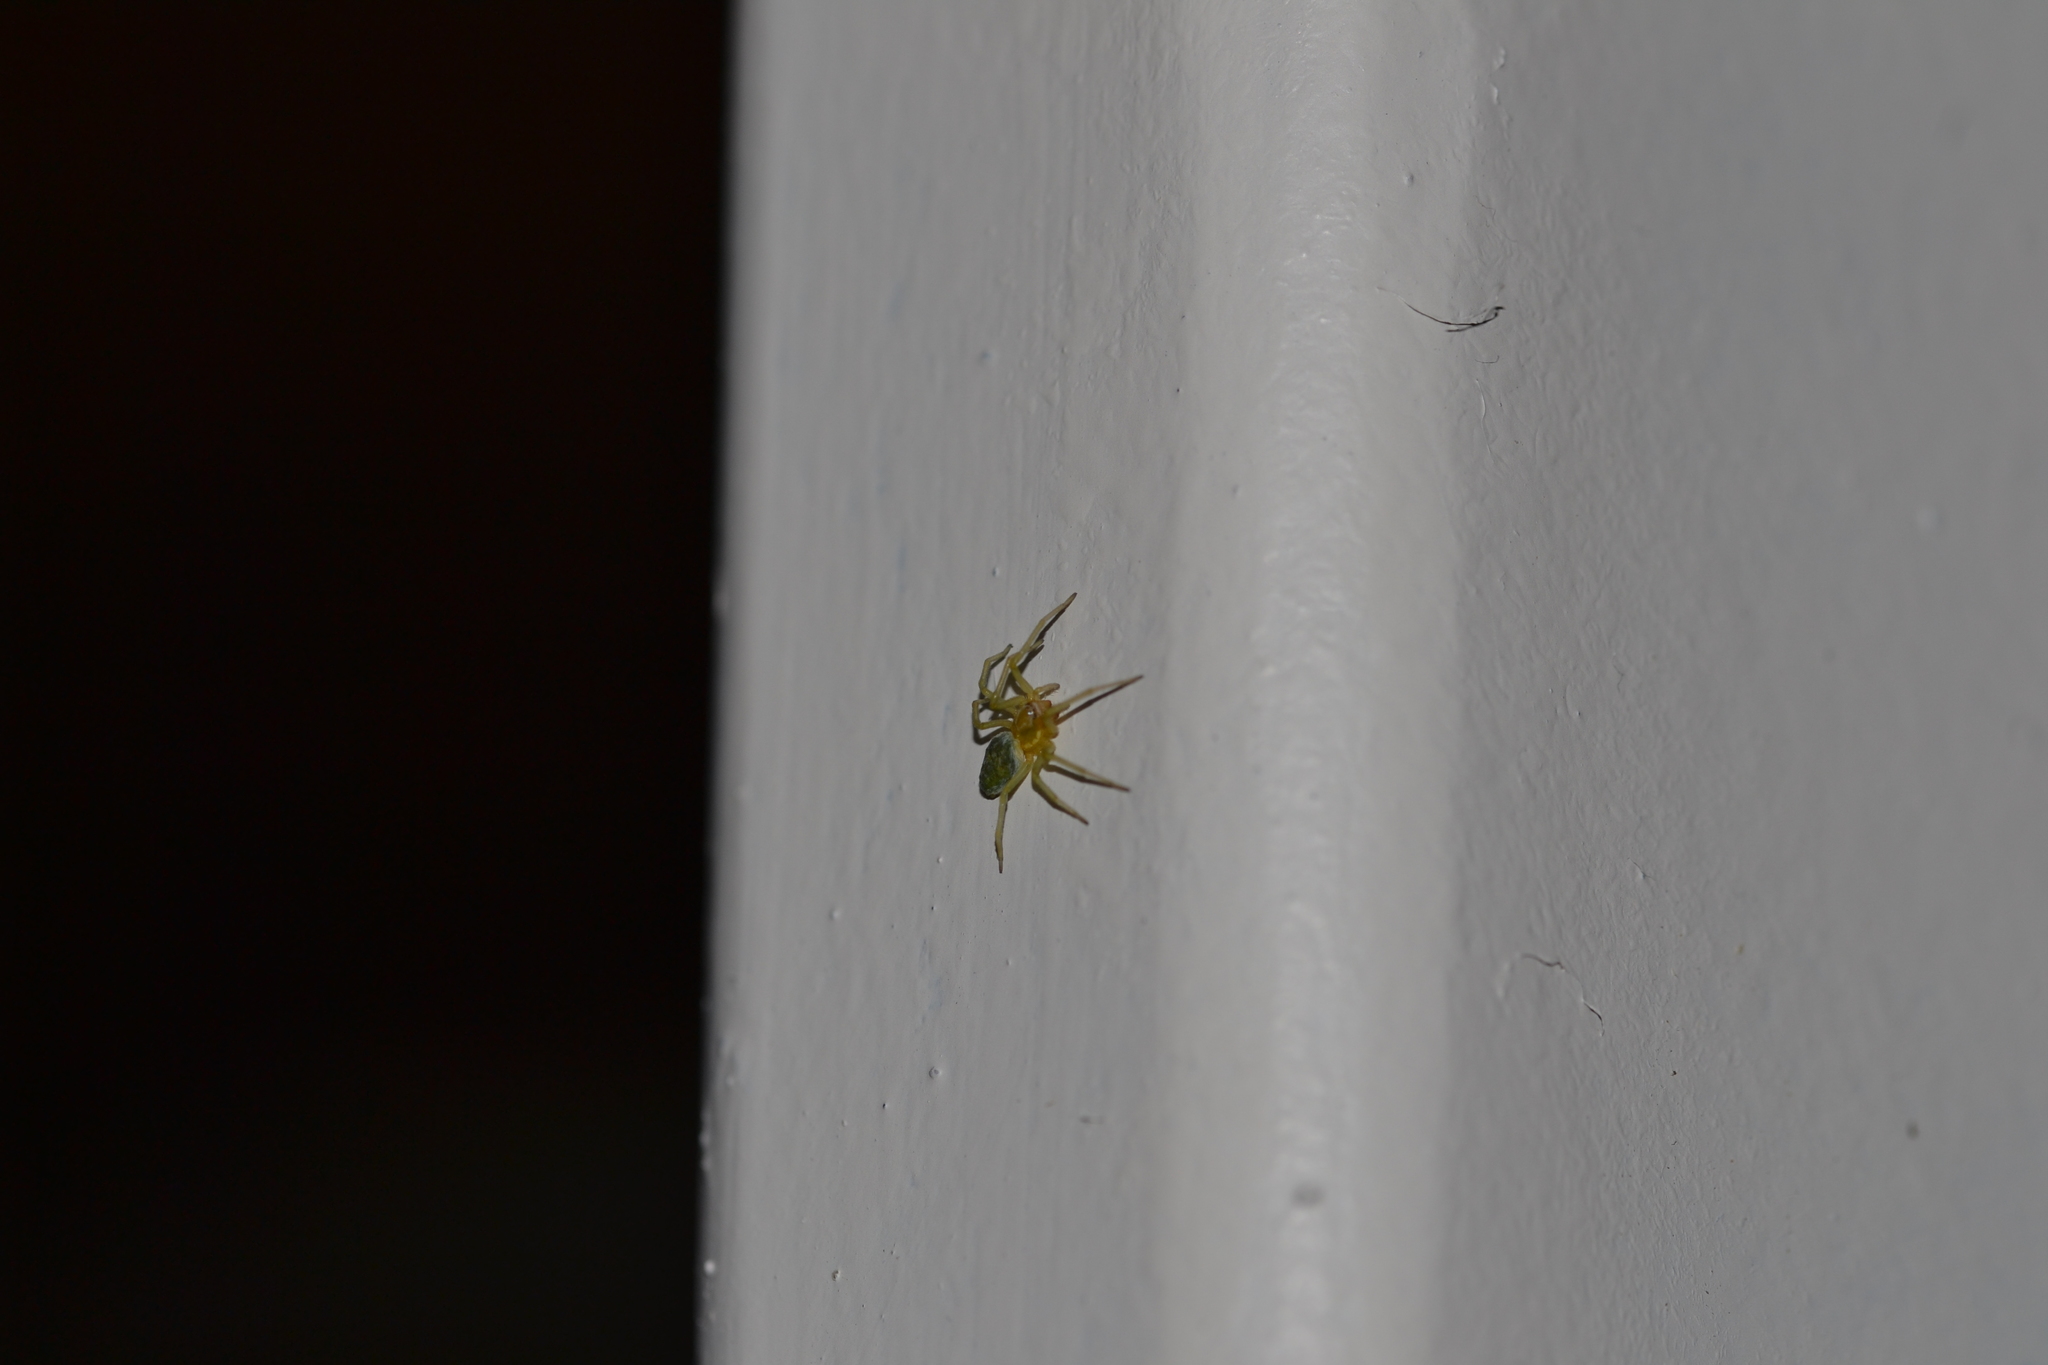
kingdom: Animalia
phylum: Arthropoda
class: Arachnida
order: Araneae
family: Dictynidae
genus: Nigma
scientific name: Nigma walckenaeri
